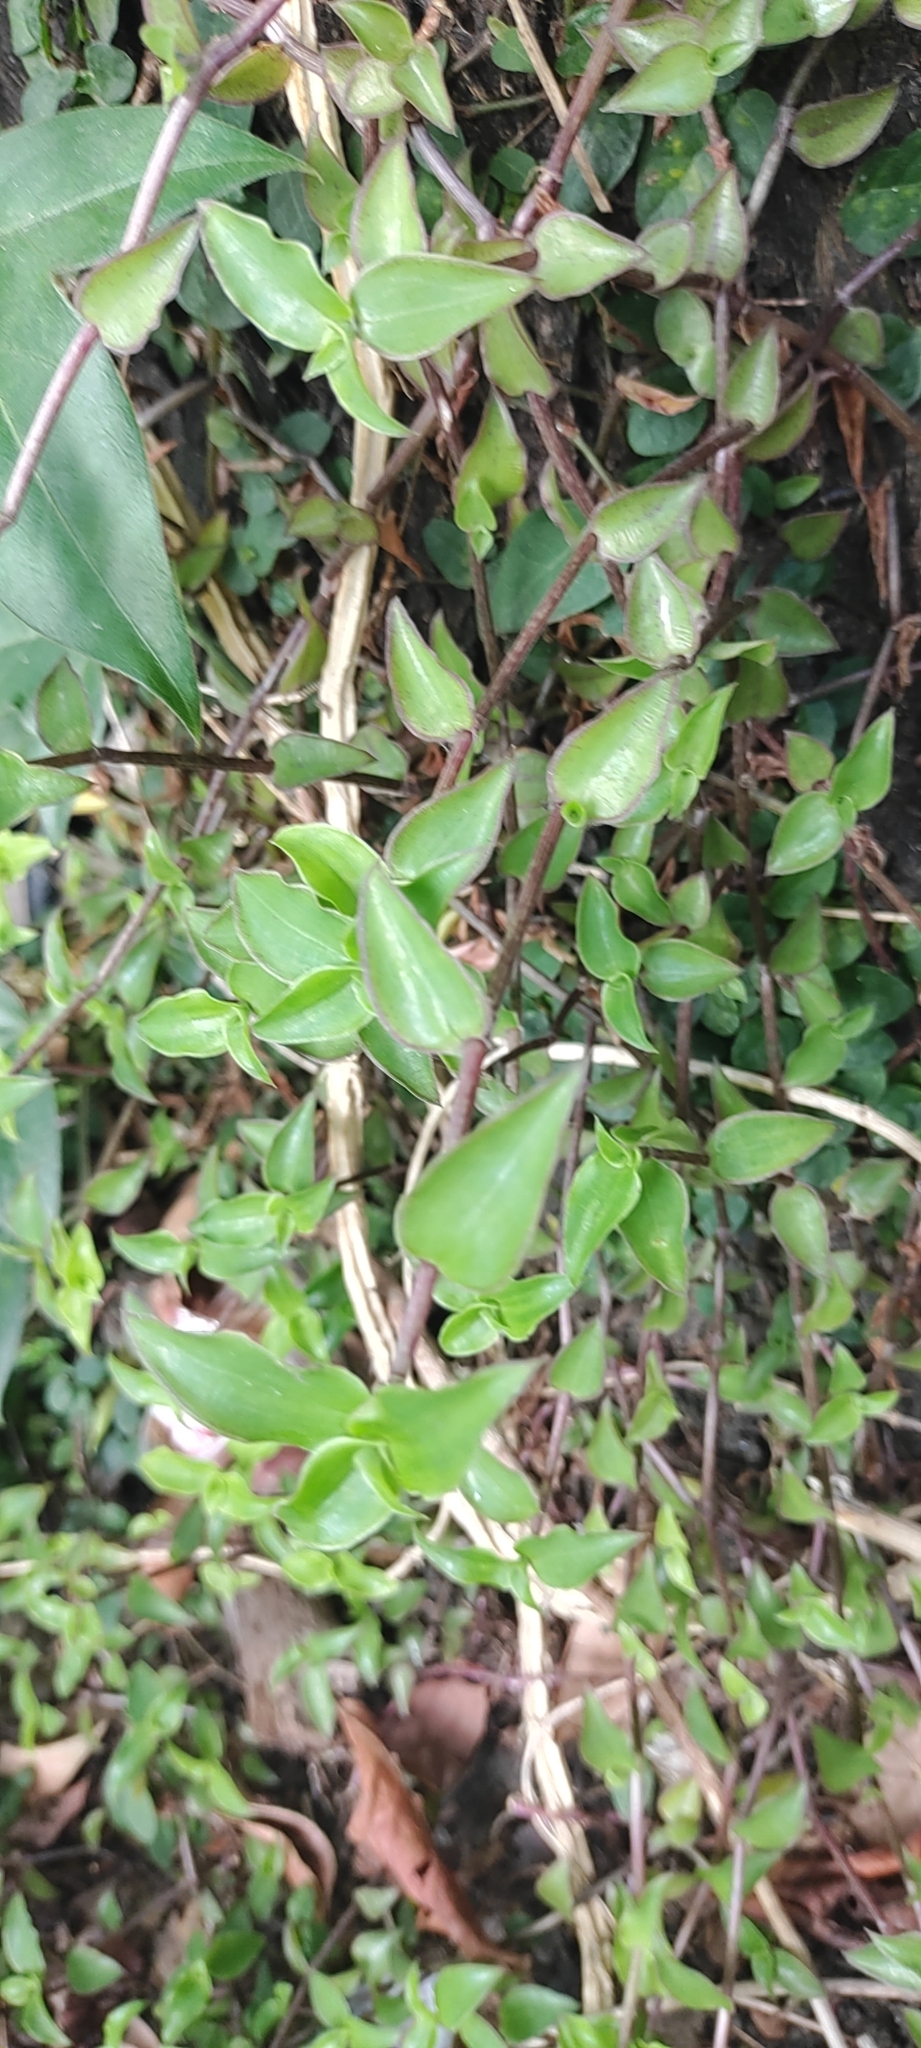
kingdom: Plantae
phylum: Tracheophyta
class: Liliopsida
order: Commelinales
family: Commelinaceae
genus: Callisia
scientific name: Callisia repens
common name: Creeping inchplant
